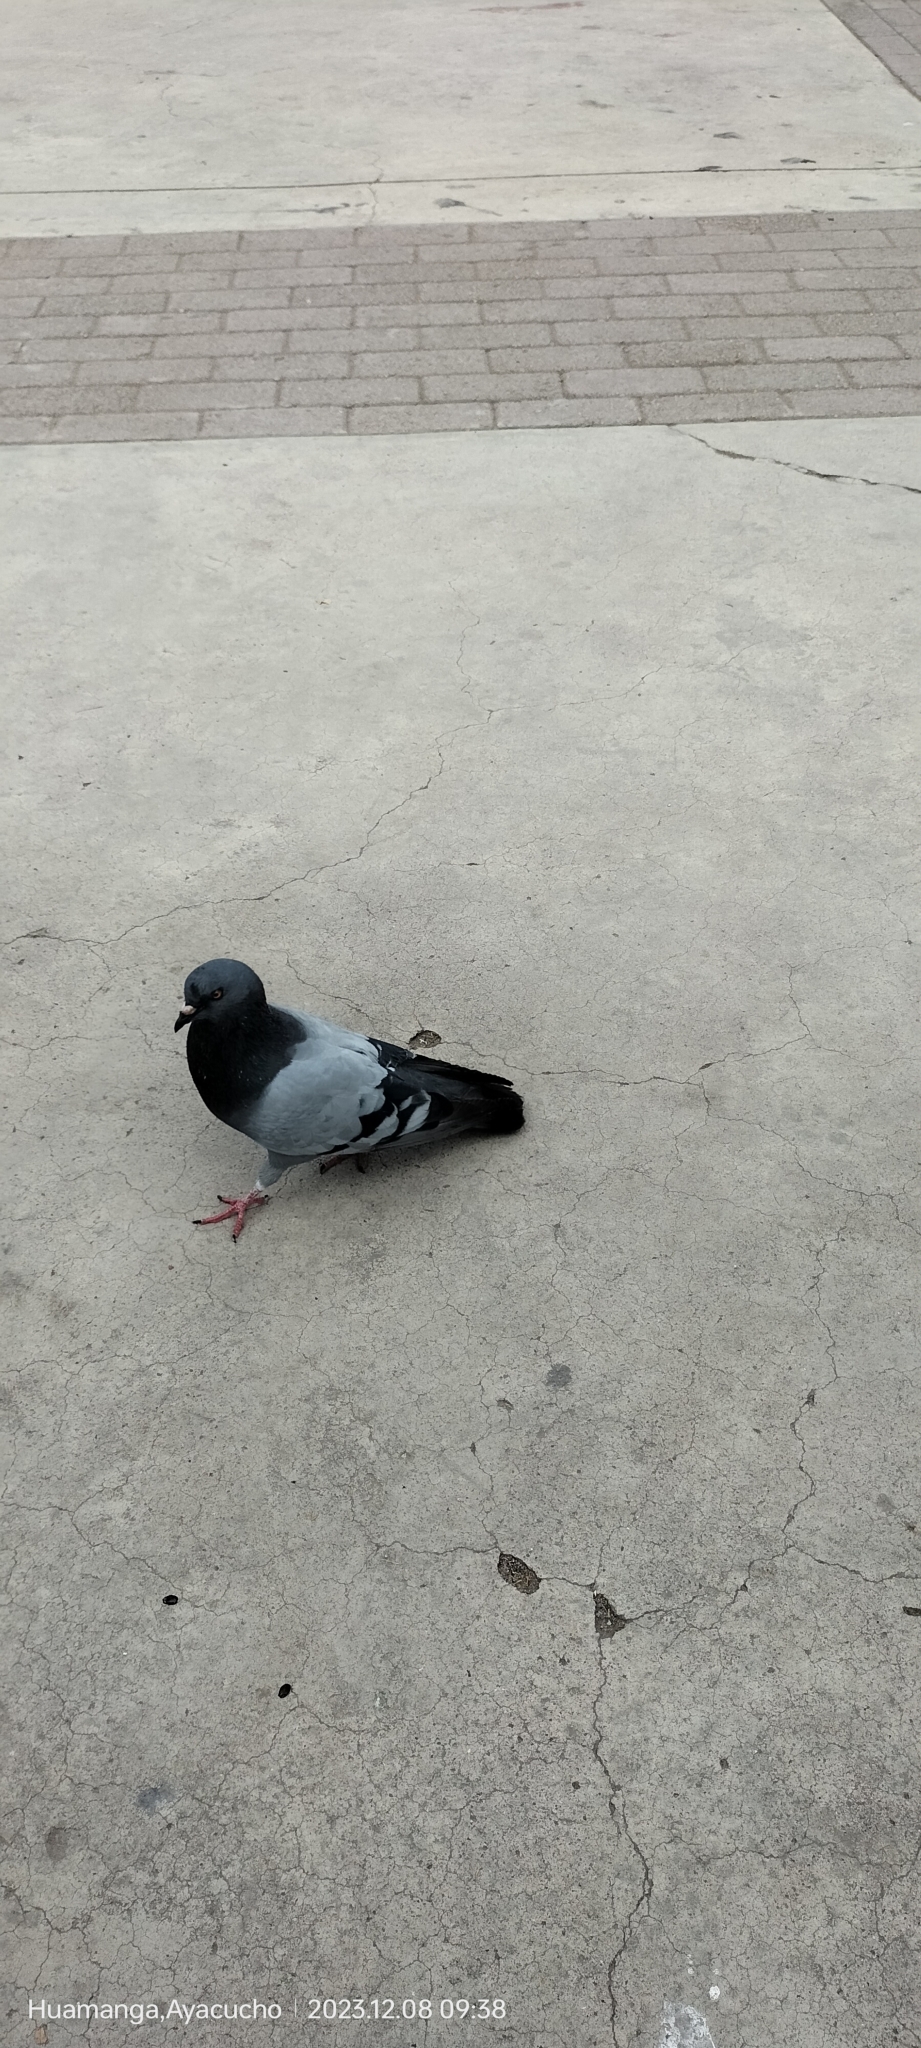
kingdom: Animalia
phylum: Chordata
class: Aves
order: Columbiformes
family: Columbidae
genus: Columba
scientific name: Columba livia
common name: Rock pigeon
